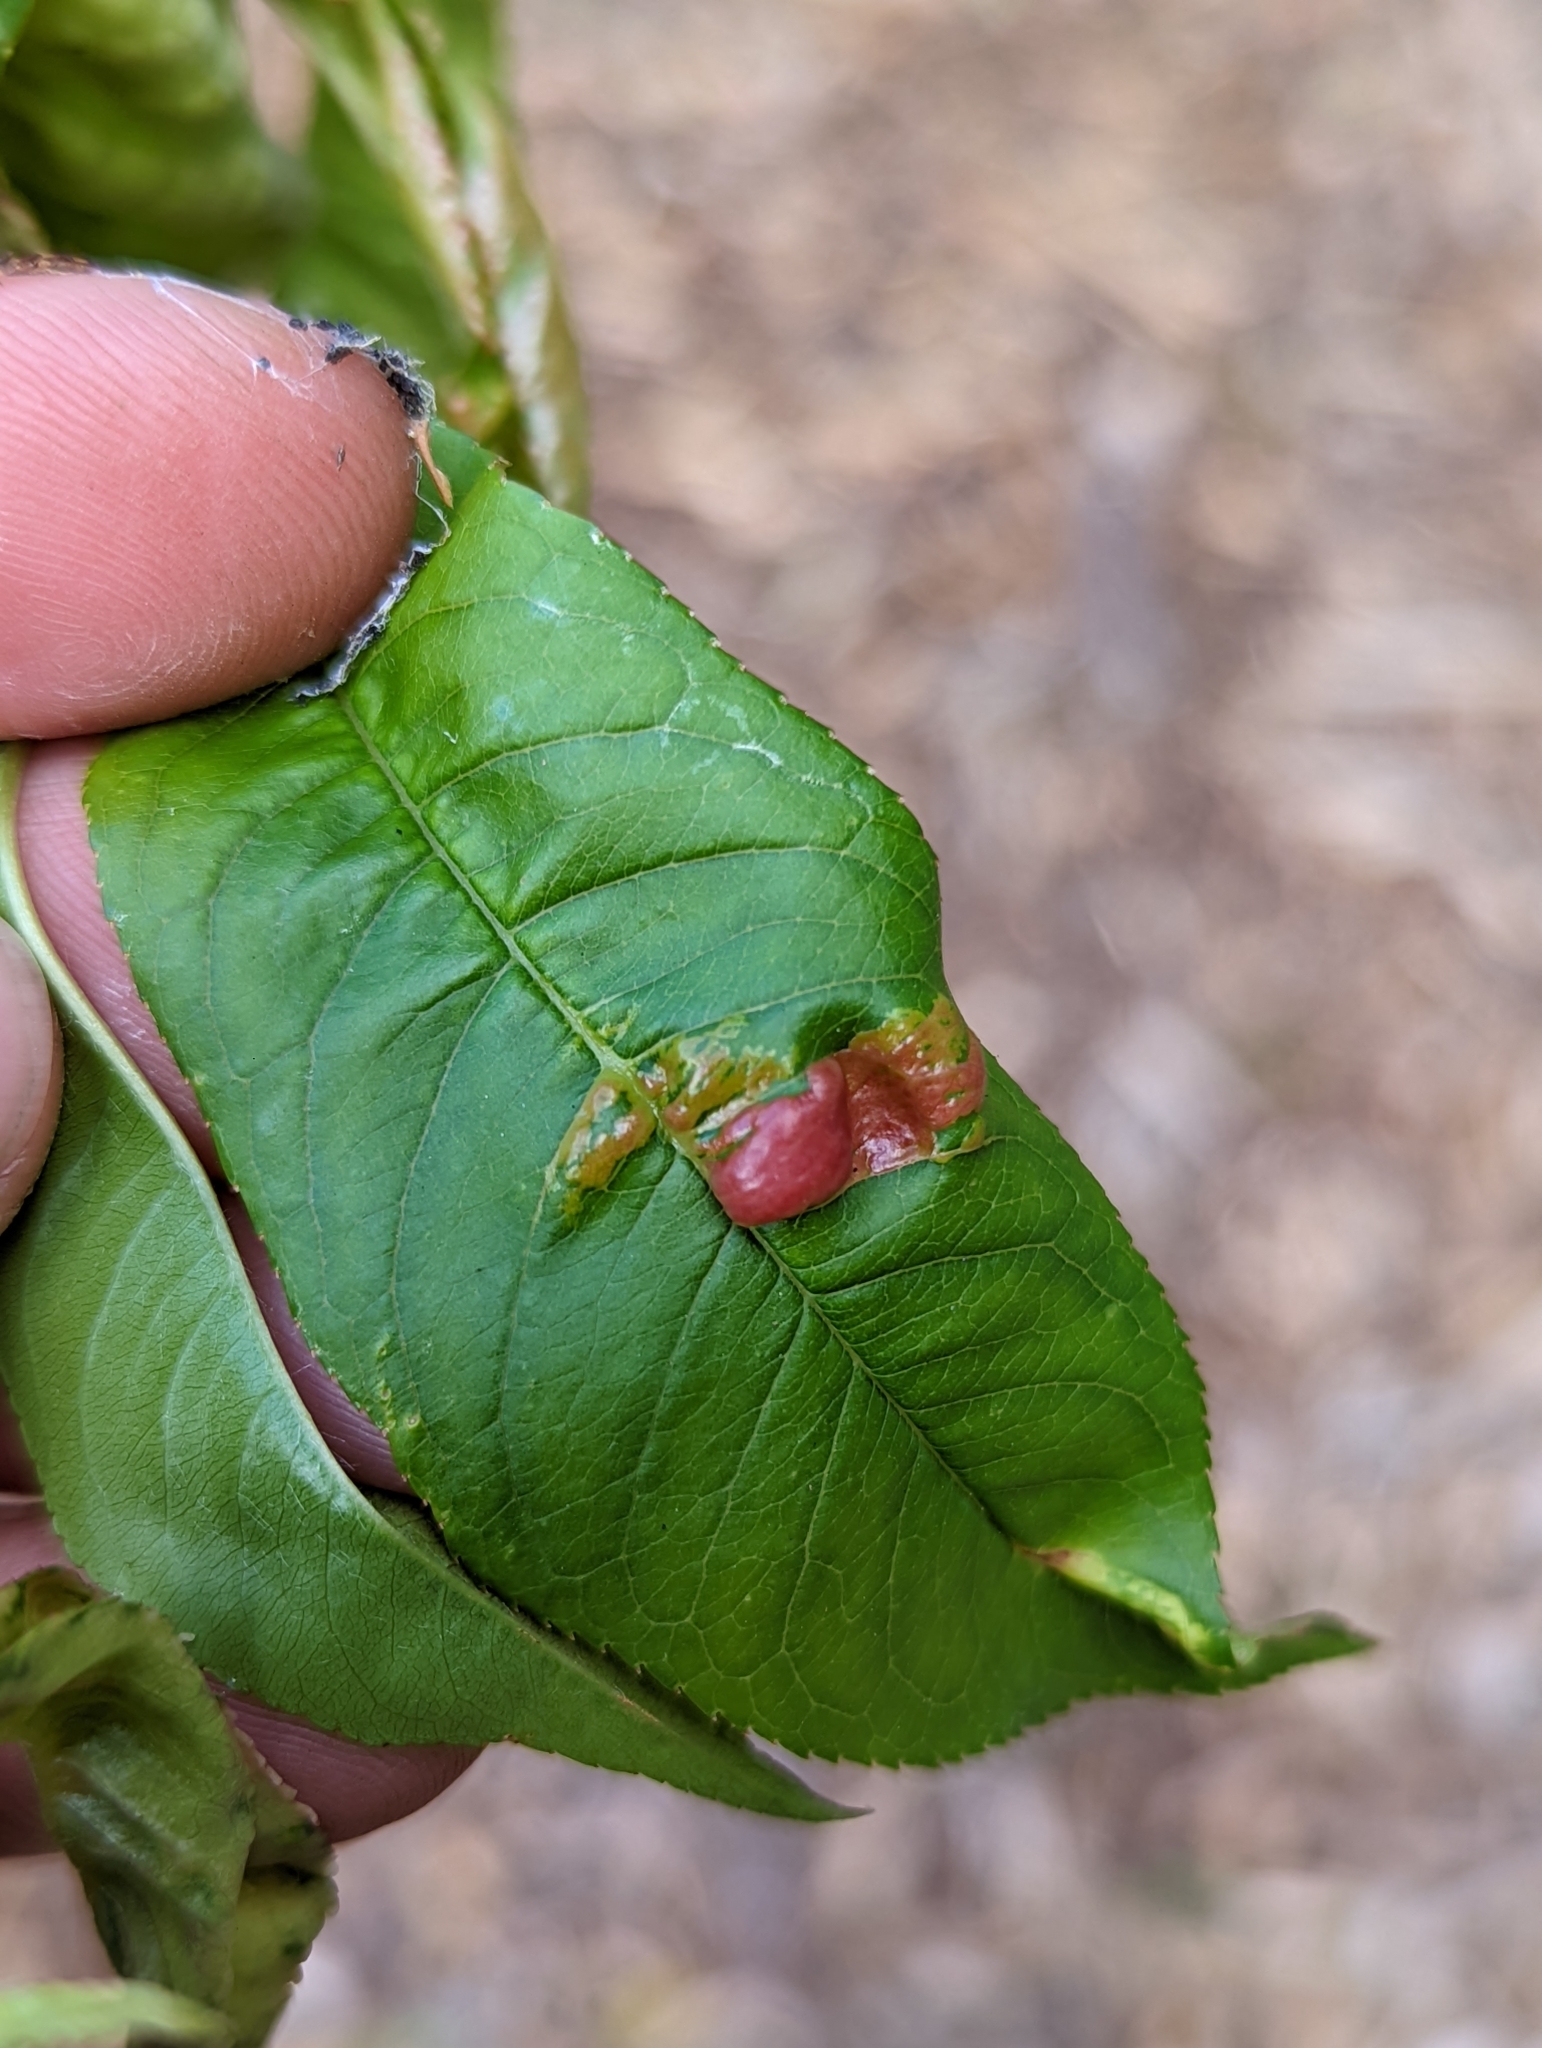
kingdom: Fungi
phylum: Ascomycota
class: Taphrinomycetes
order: Taphrinales
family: Taphrinaceae
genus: Taphrina
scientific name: Taphrina deformans
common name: Peach leaf curl
